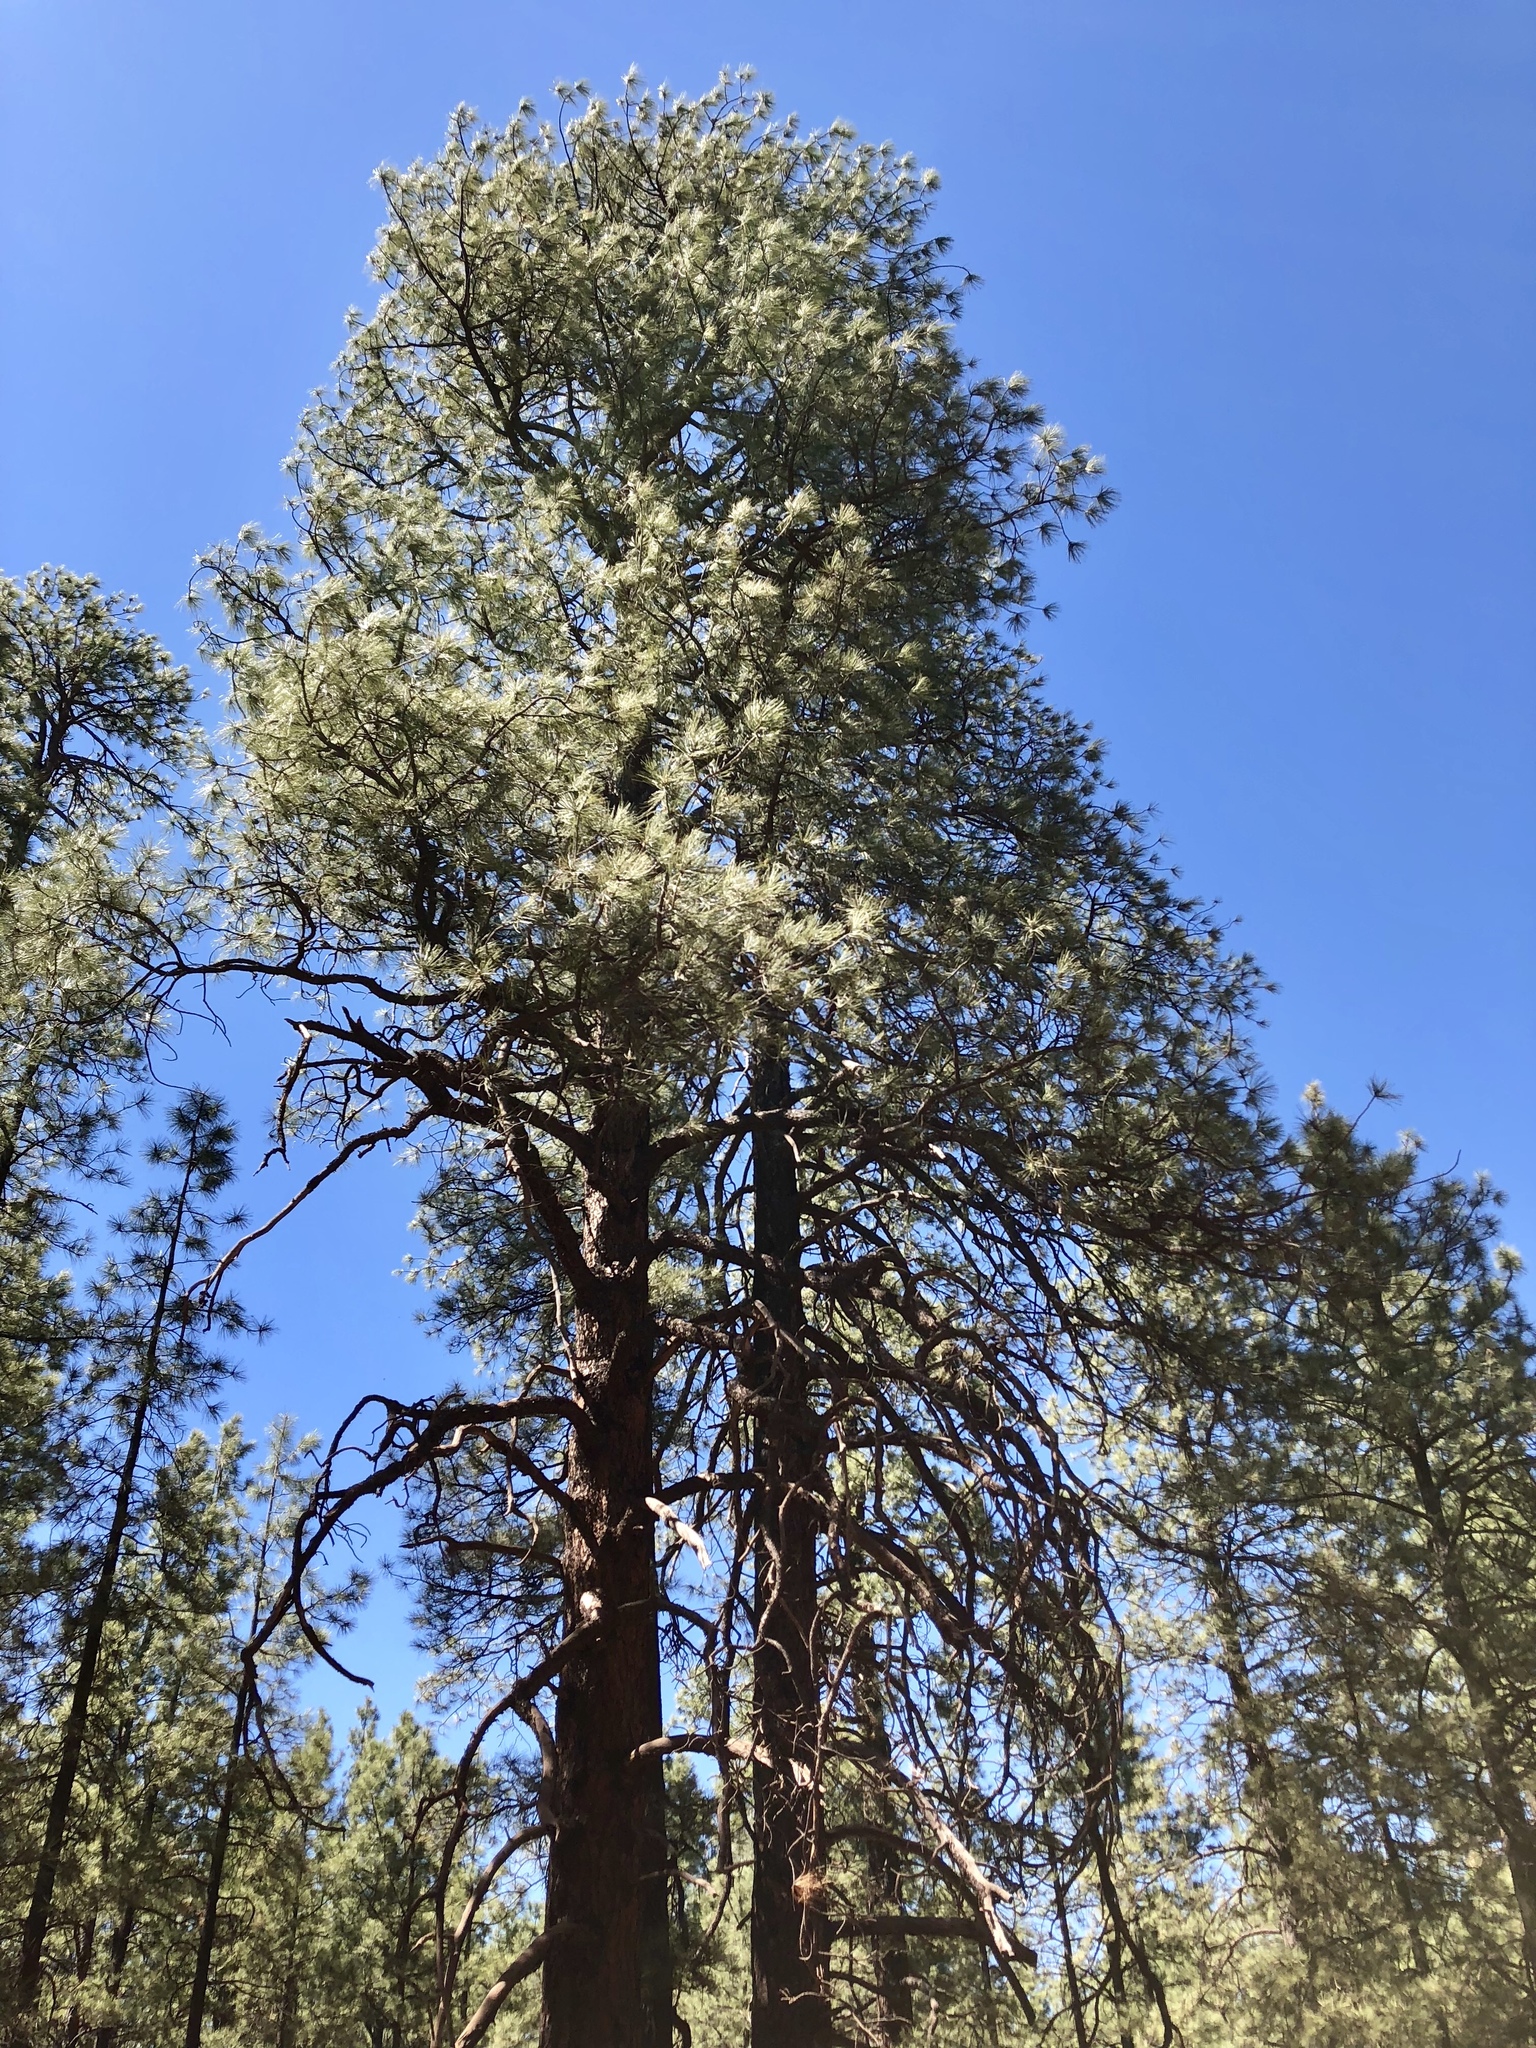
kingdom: Plantae
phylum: Tracheophyta
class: Pinopsida
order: Pinales
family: Pinaceae
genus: Pinus
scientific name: Pinus ponderosa
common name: Western yellow-pine
